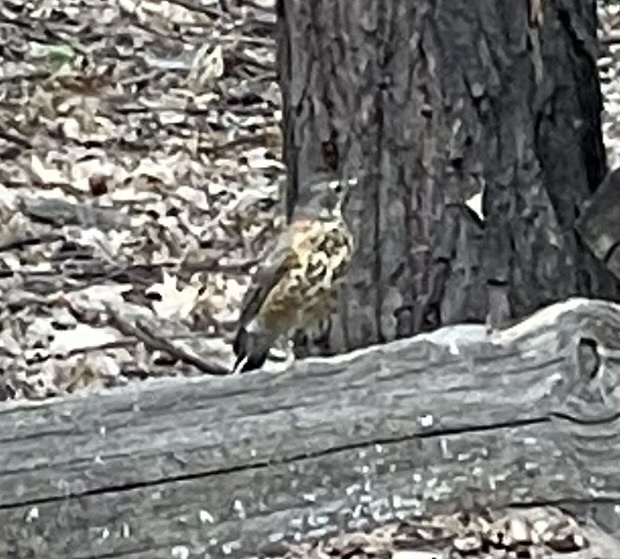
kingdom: Animalia
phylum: Chordata
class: Aves
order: Passeriformes
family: Turdidae
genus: Turdus
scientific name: Turdus migratorius
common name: American robin
